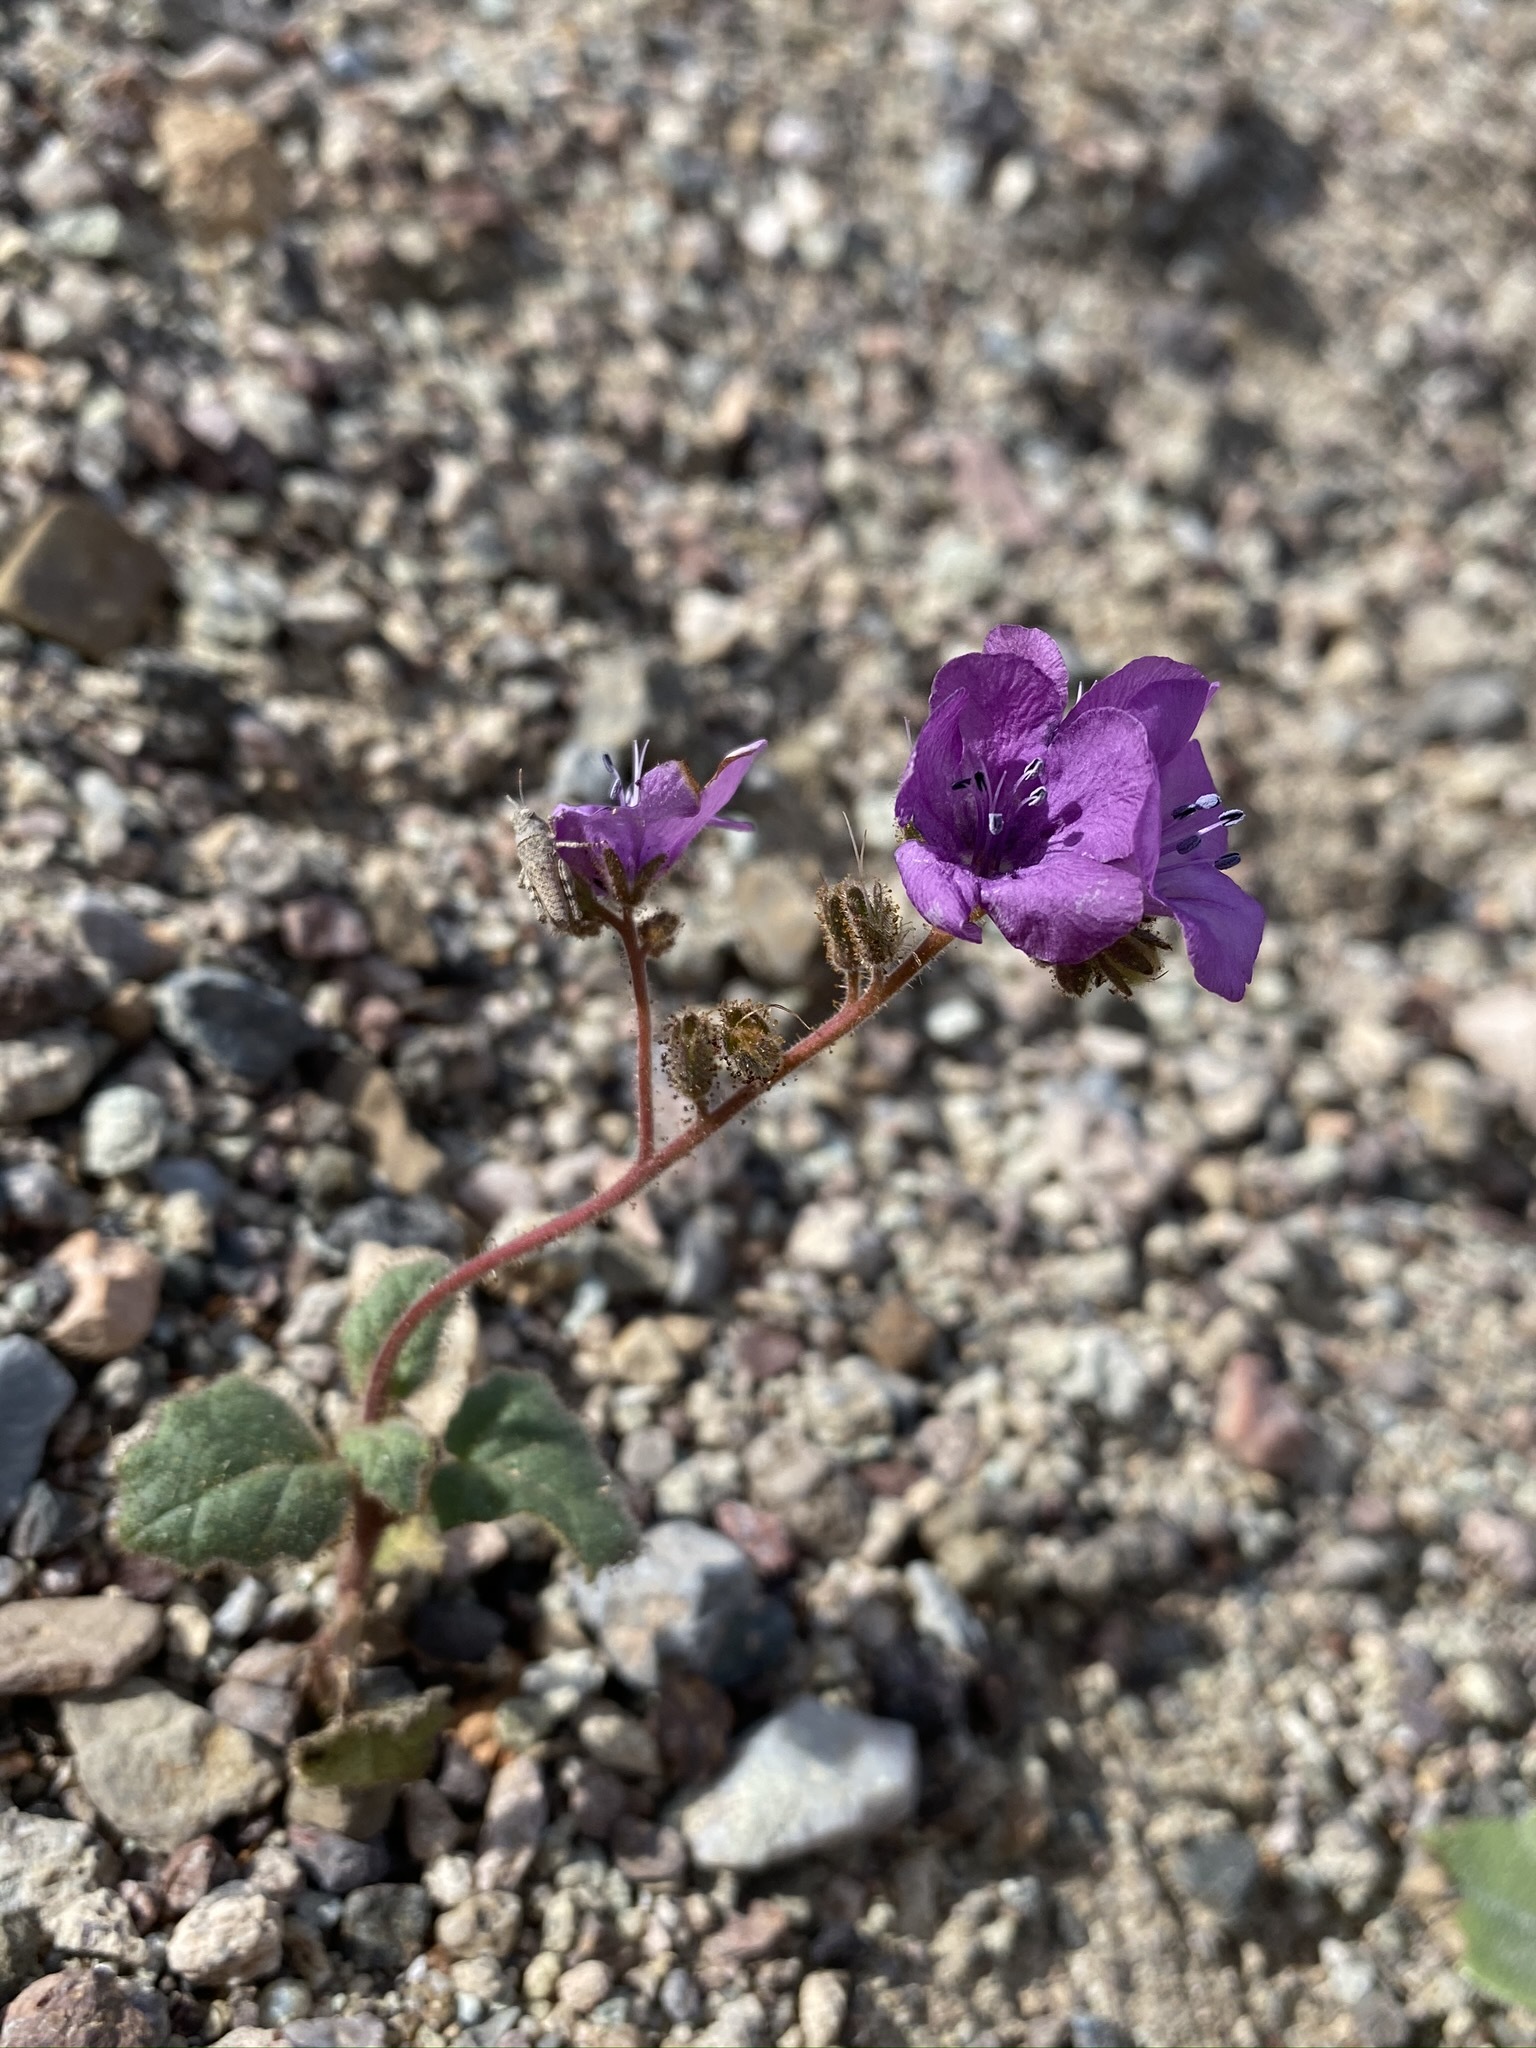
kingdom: Plantae
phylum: Tracheophyta
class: Magnoliopsida
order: Boraginales
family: Hydrophyllaceae
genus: Phacelia
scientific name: Phacelia calthifolia
